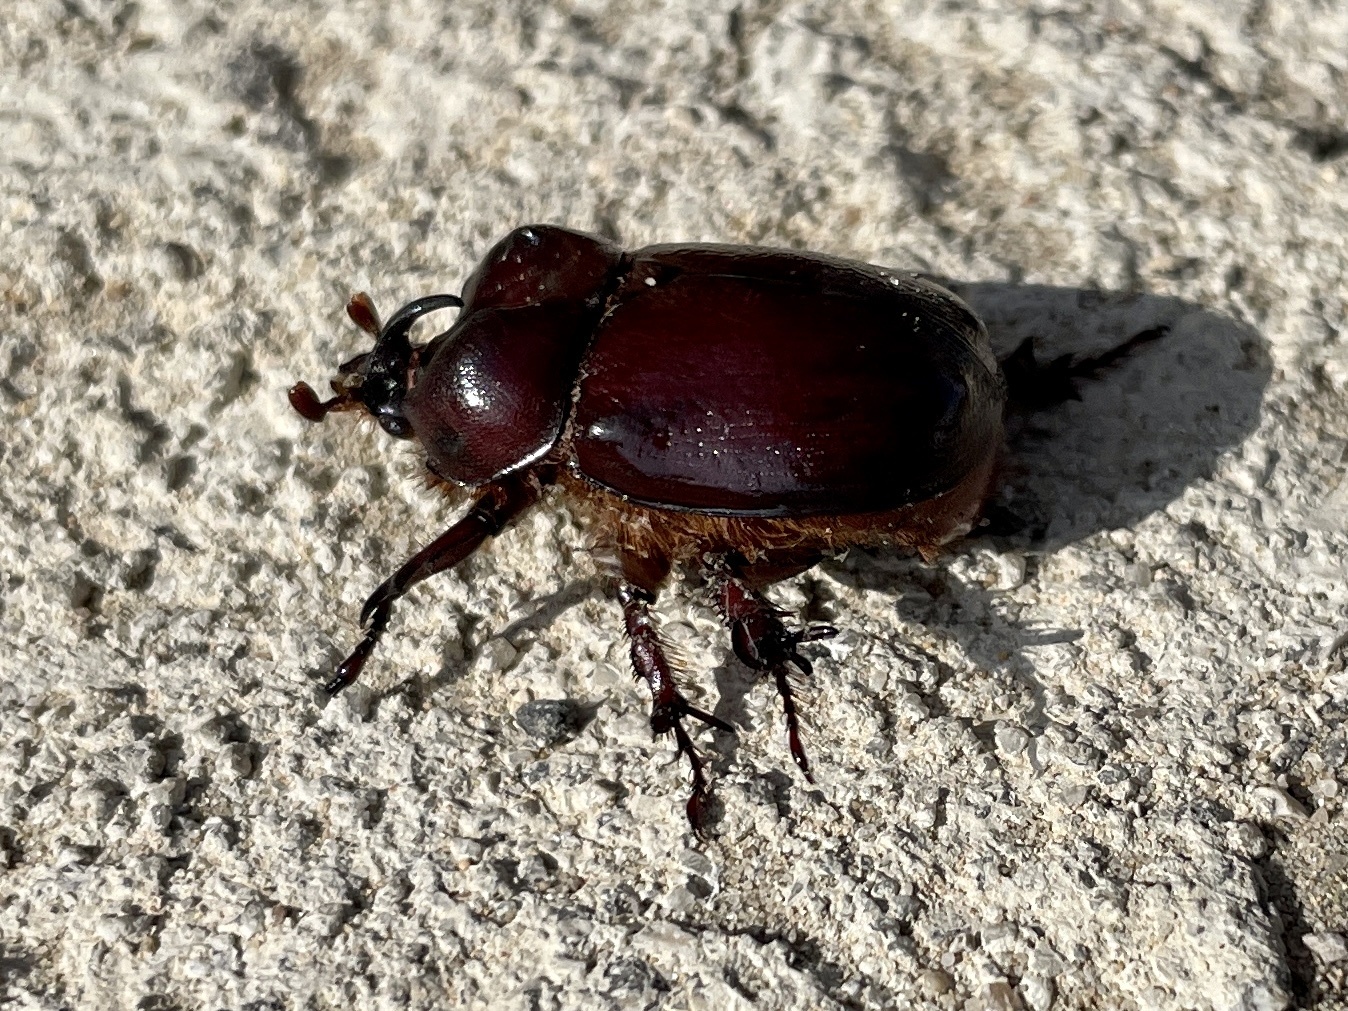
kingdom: Animalia
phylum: Arthropoda
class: Insecta
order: Coleoptera
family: Scarabaeidae
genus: Phyllognathus
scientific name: Phyllognathus excavatus
